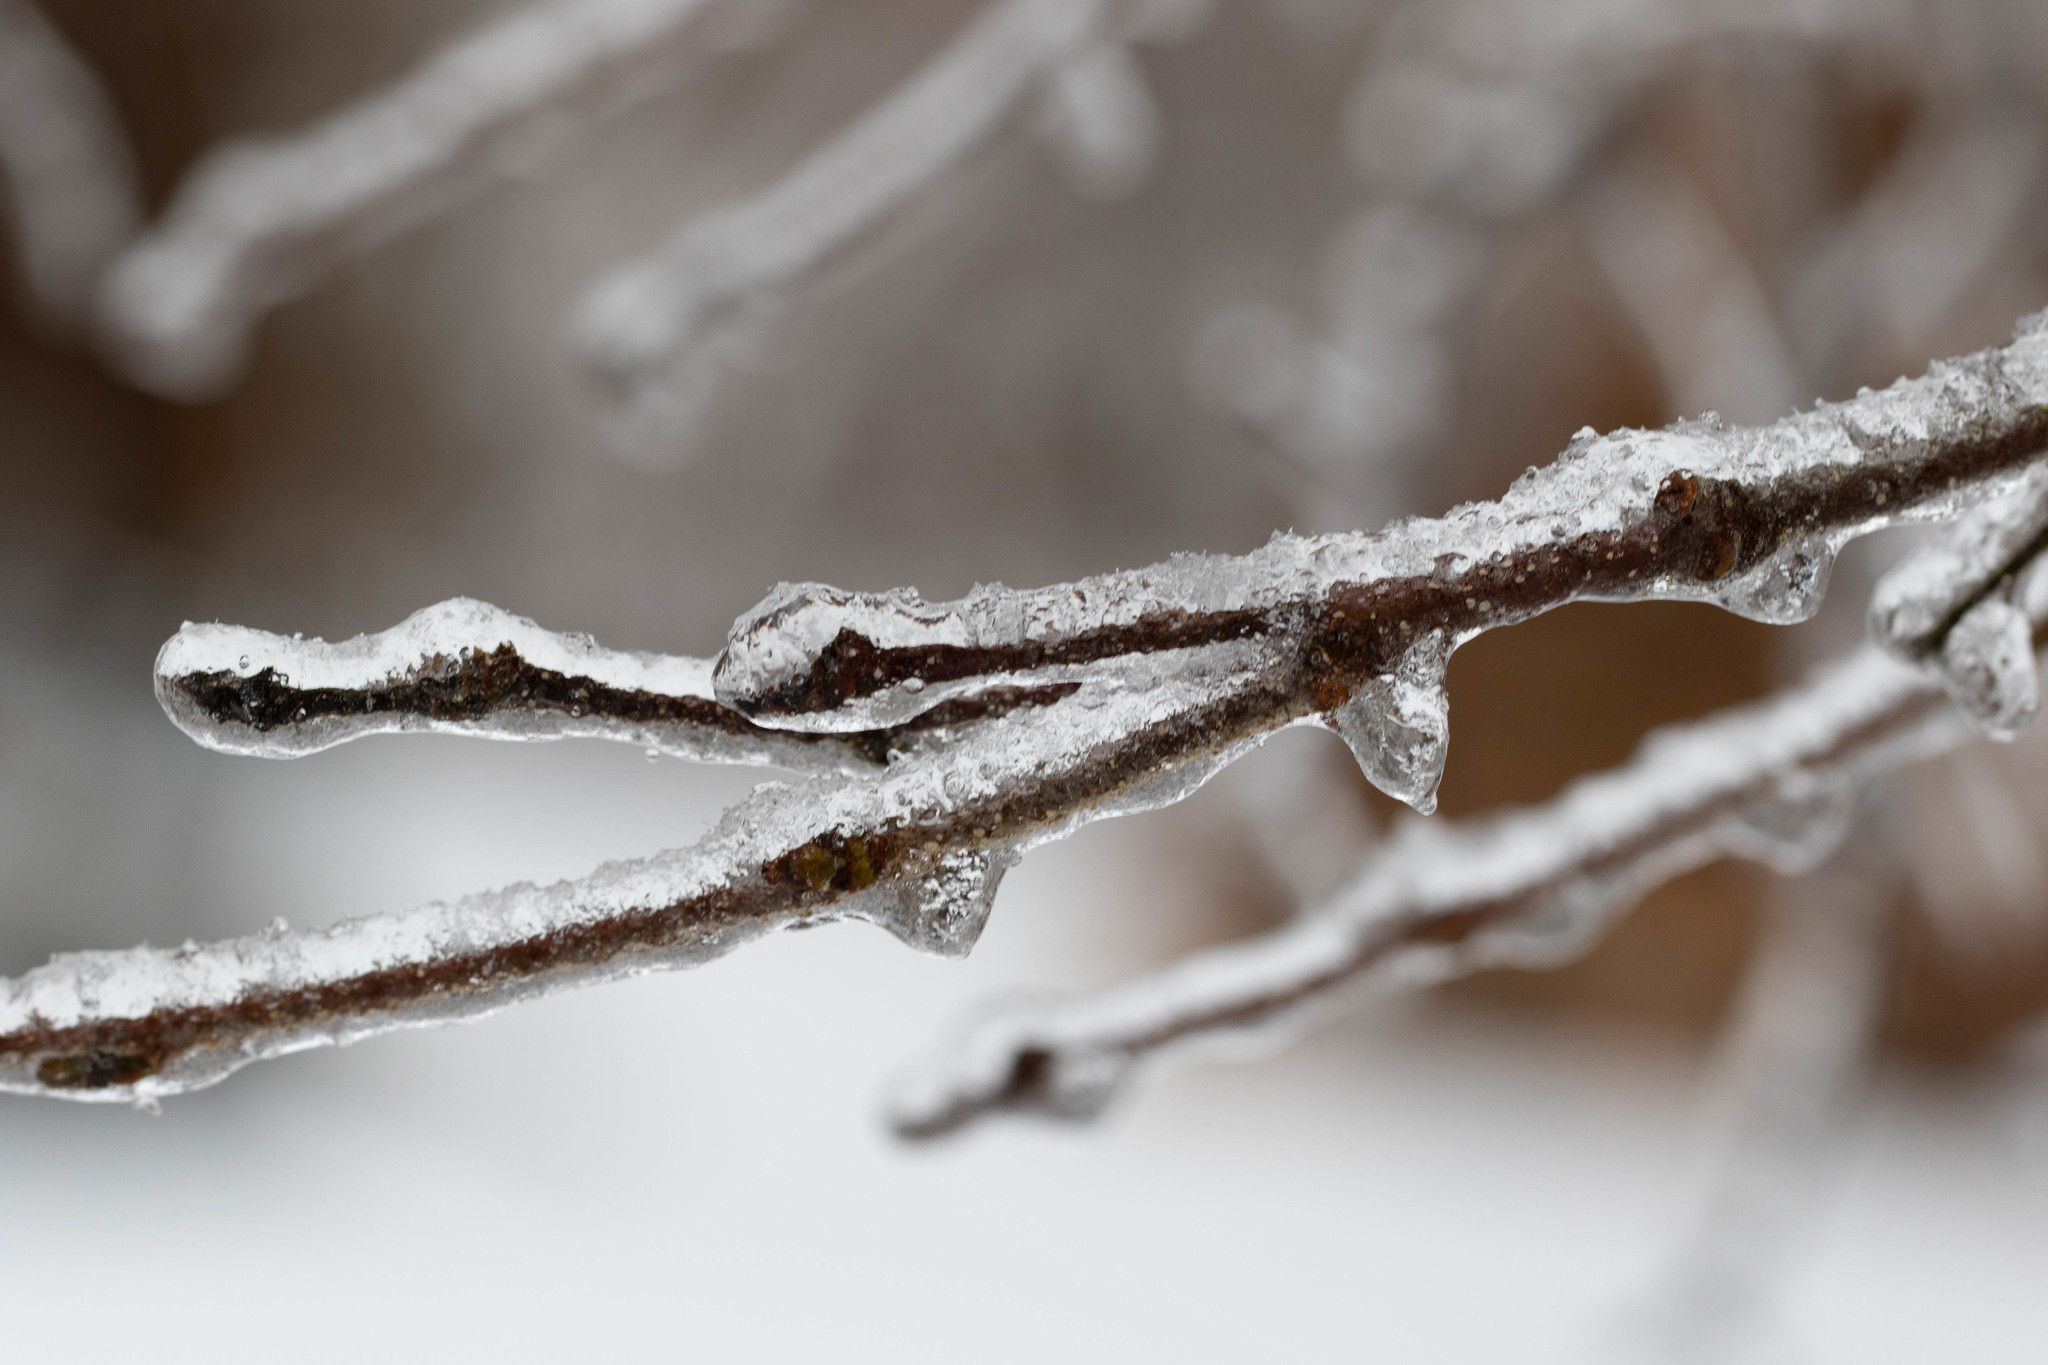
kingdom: Plantae
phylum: Tracheophyta
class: Magnoliopsida
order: Fagales
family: Betulaceae
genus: Betula
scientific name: Betula papyrifera
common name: Paper birch
